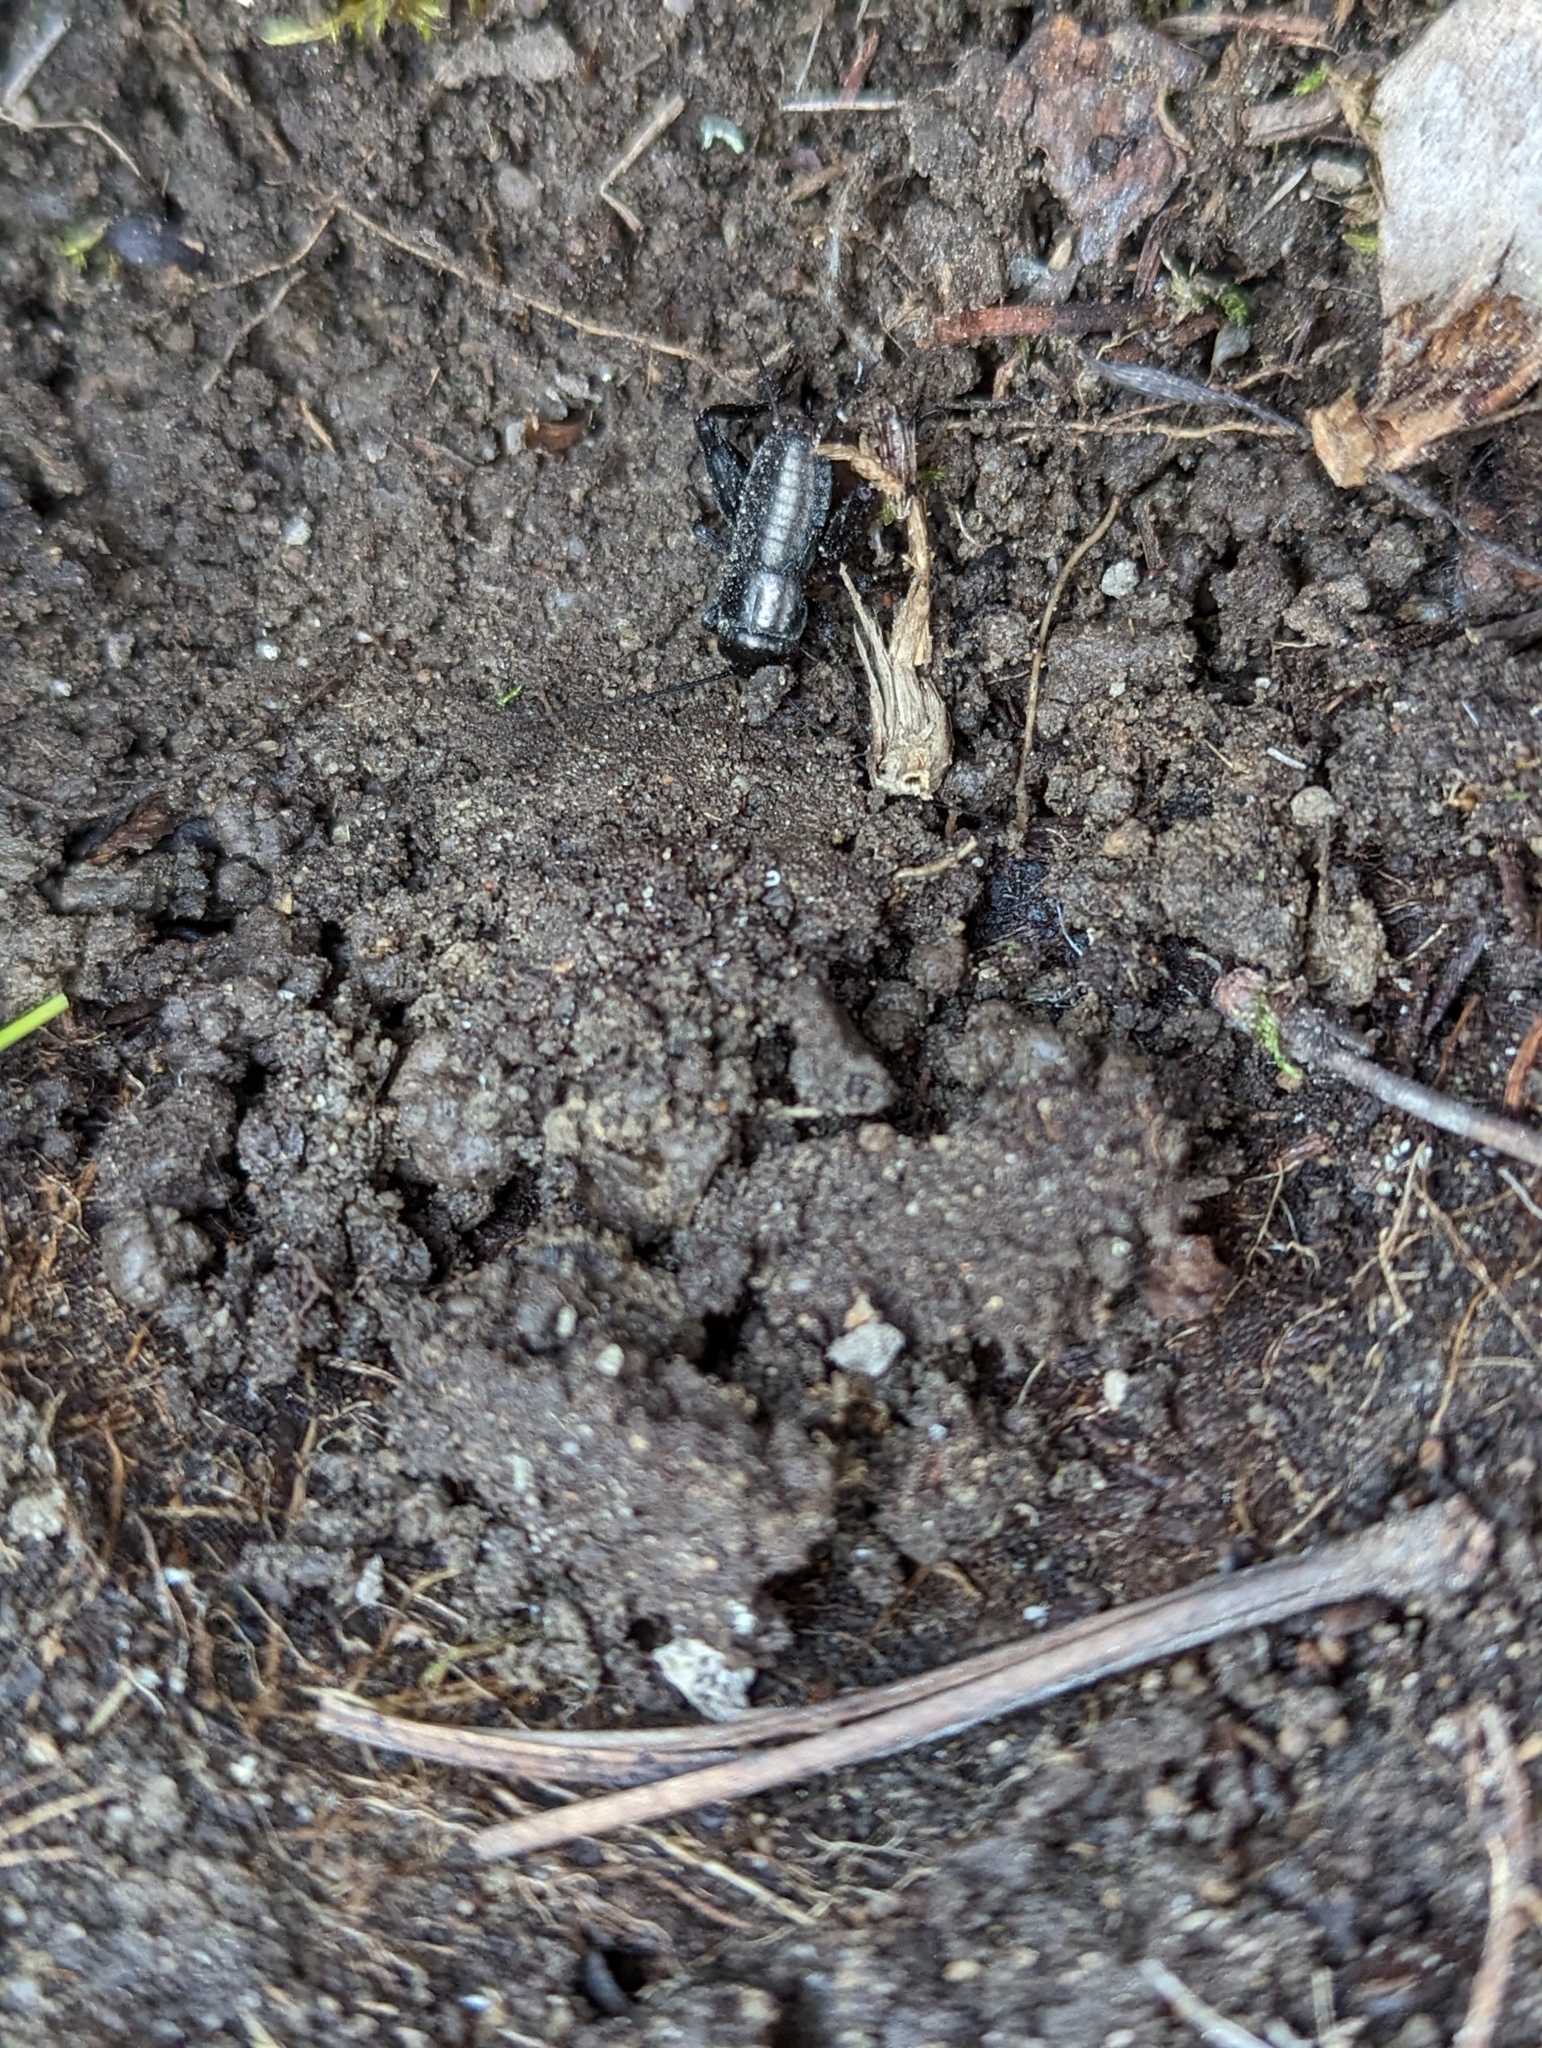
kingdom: Animalia
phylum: Arthropoda
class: Insecta
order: Orthoptera
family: Gryllidae
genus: Gryllus
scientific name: Gryllus veletis
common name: Spring field cricket
